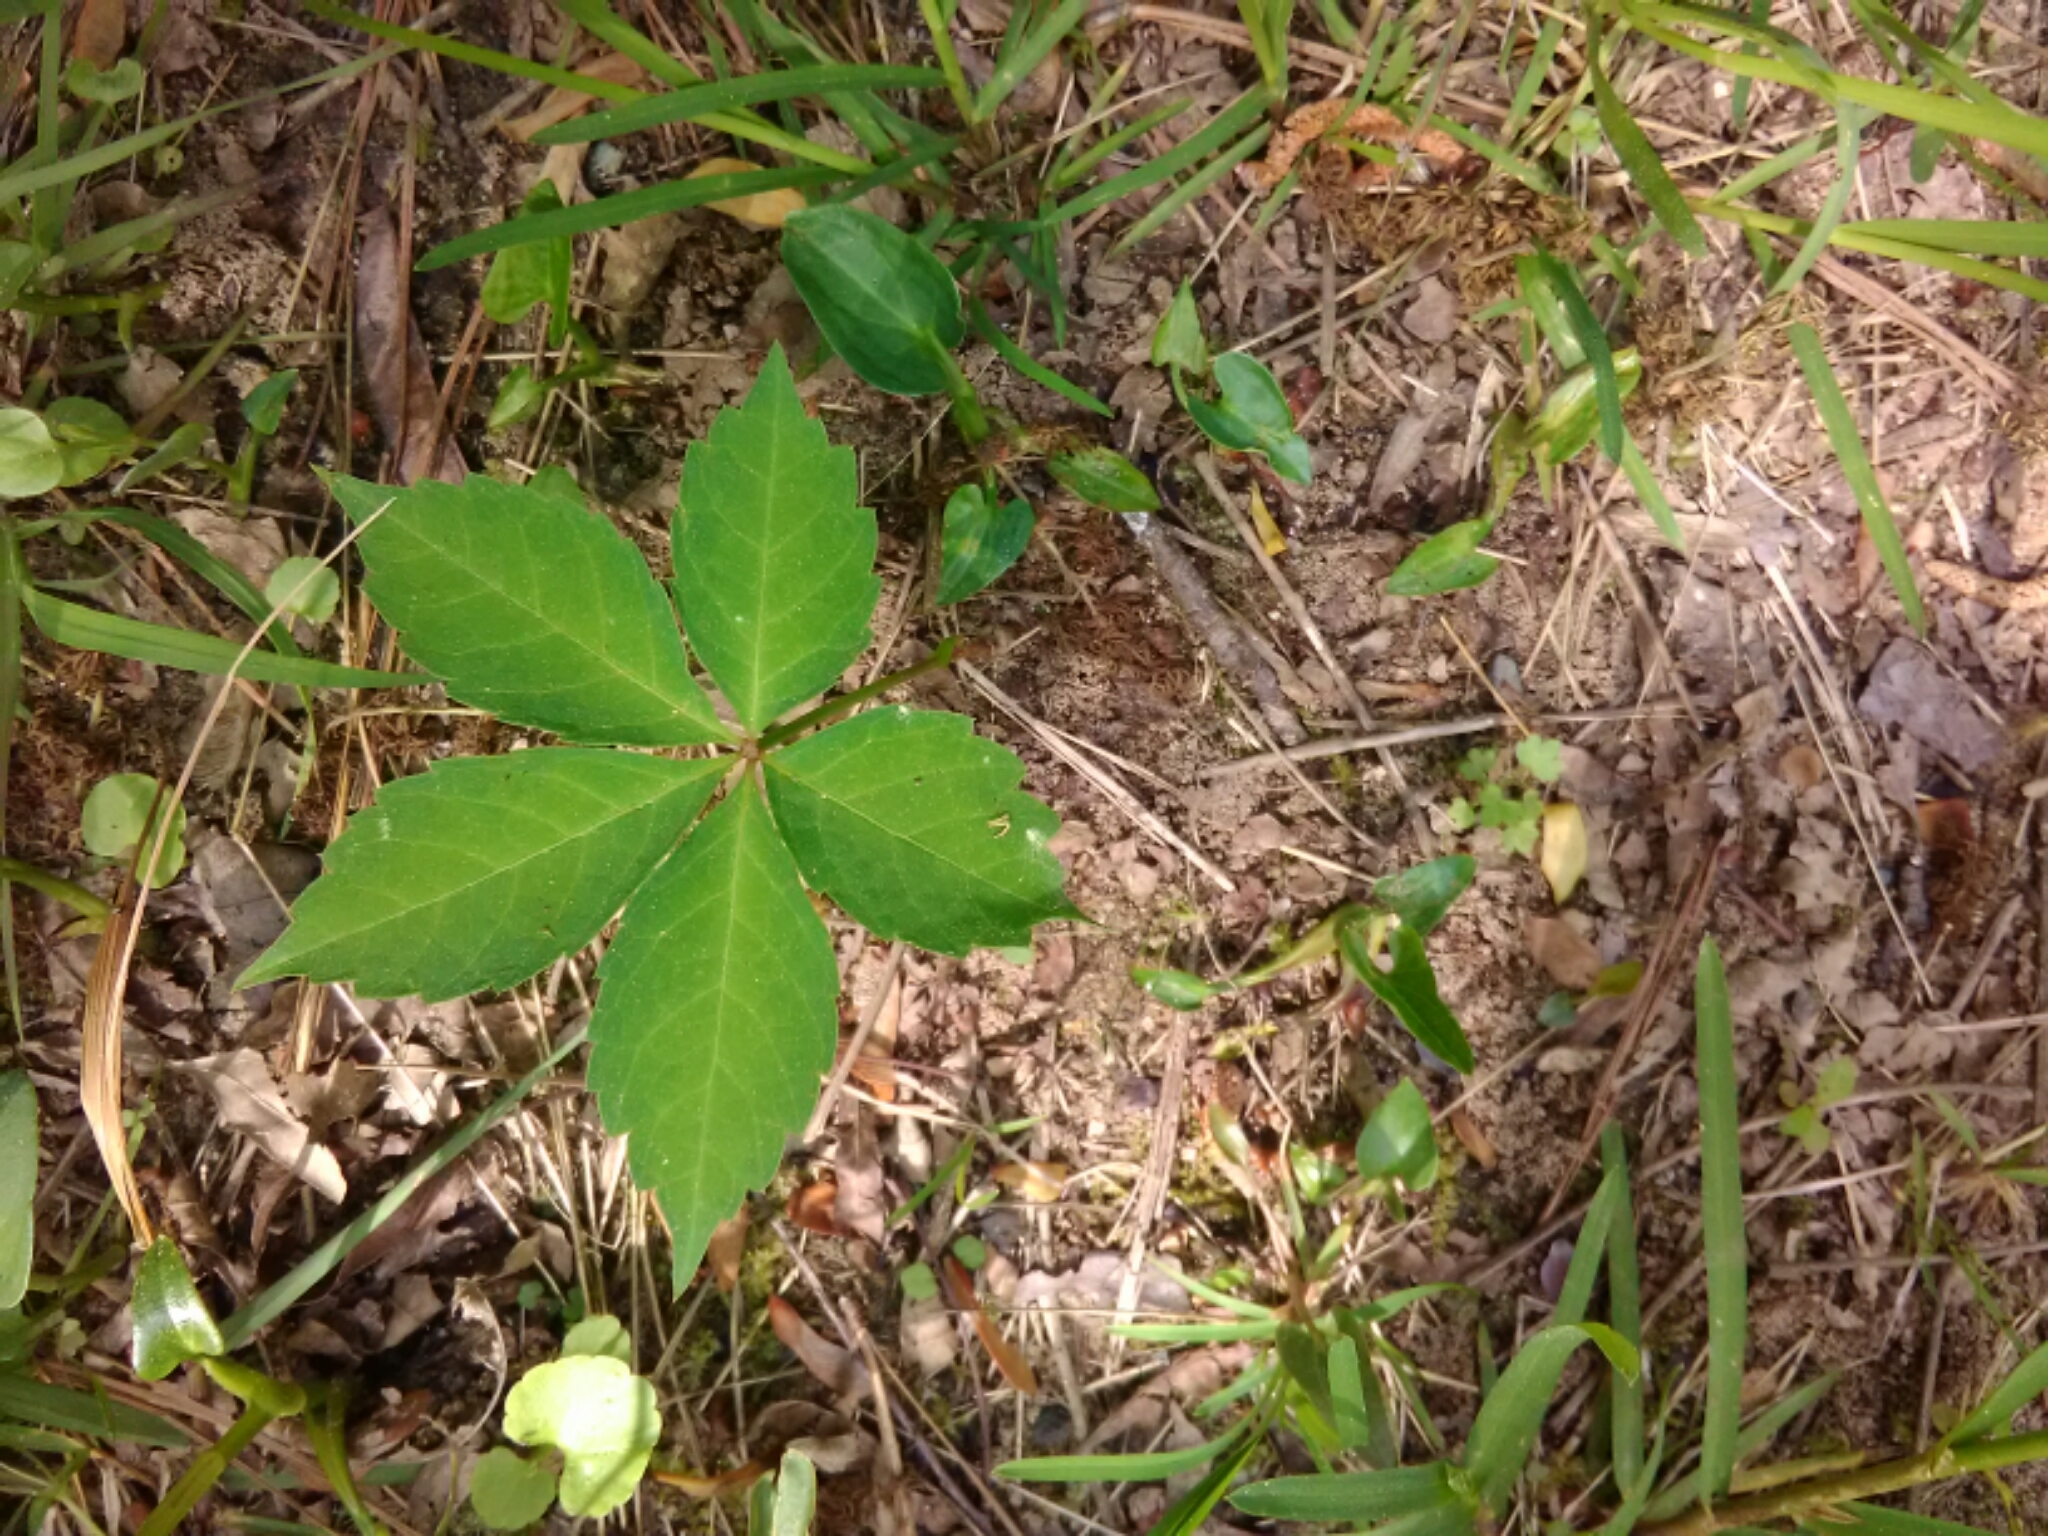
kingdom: Plantae
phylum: Tracheophyta
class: Magnoliopsida
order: Vitales
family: Vitaceae
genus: Parthenocissus
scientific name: Parthenocissus quinquefolia
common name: Virginia-creeper
